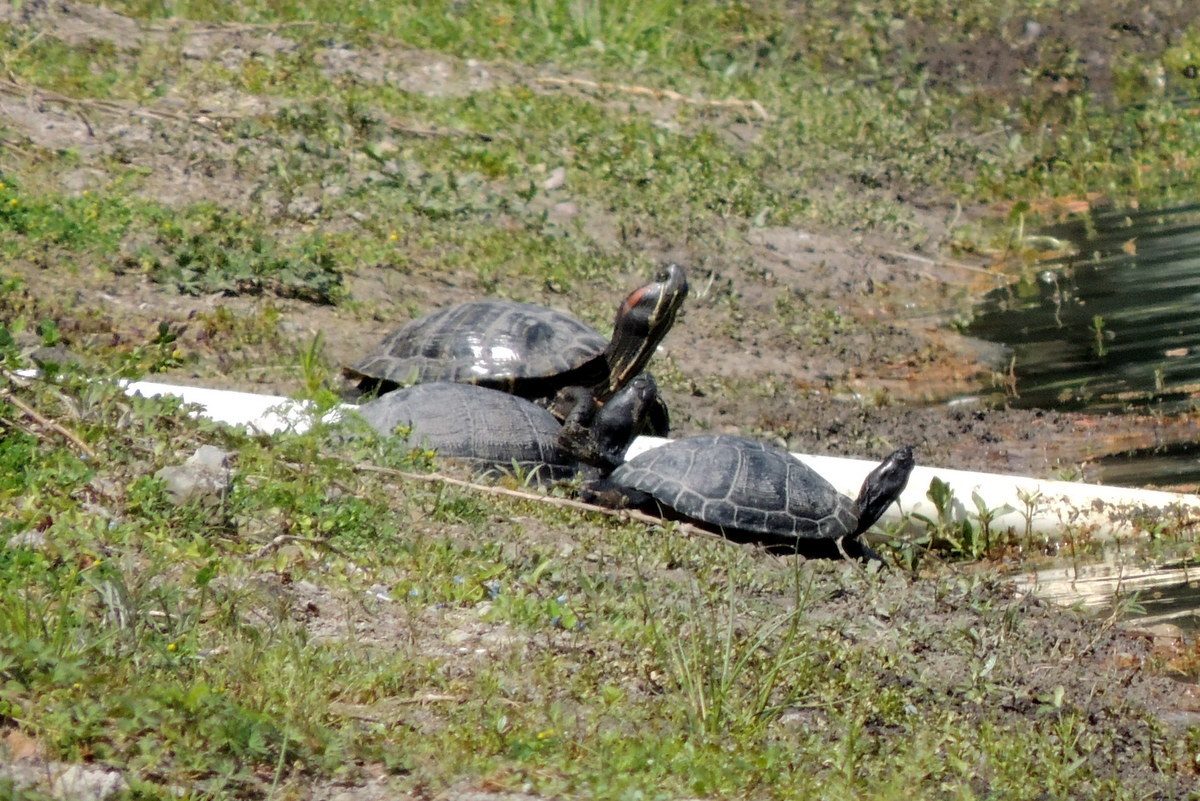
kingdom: Animalia
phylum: Chordata
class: Testudines
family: Emydidae
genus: Trachemys
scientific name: Trachemys scripta
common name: Slider
